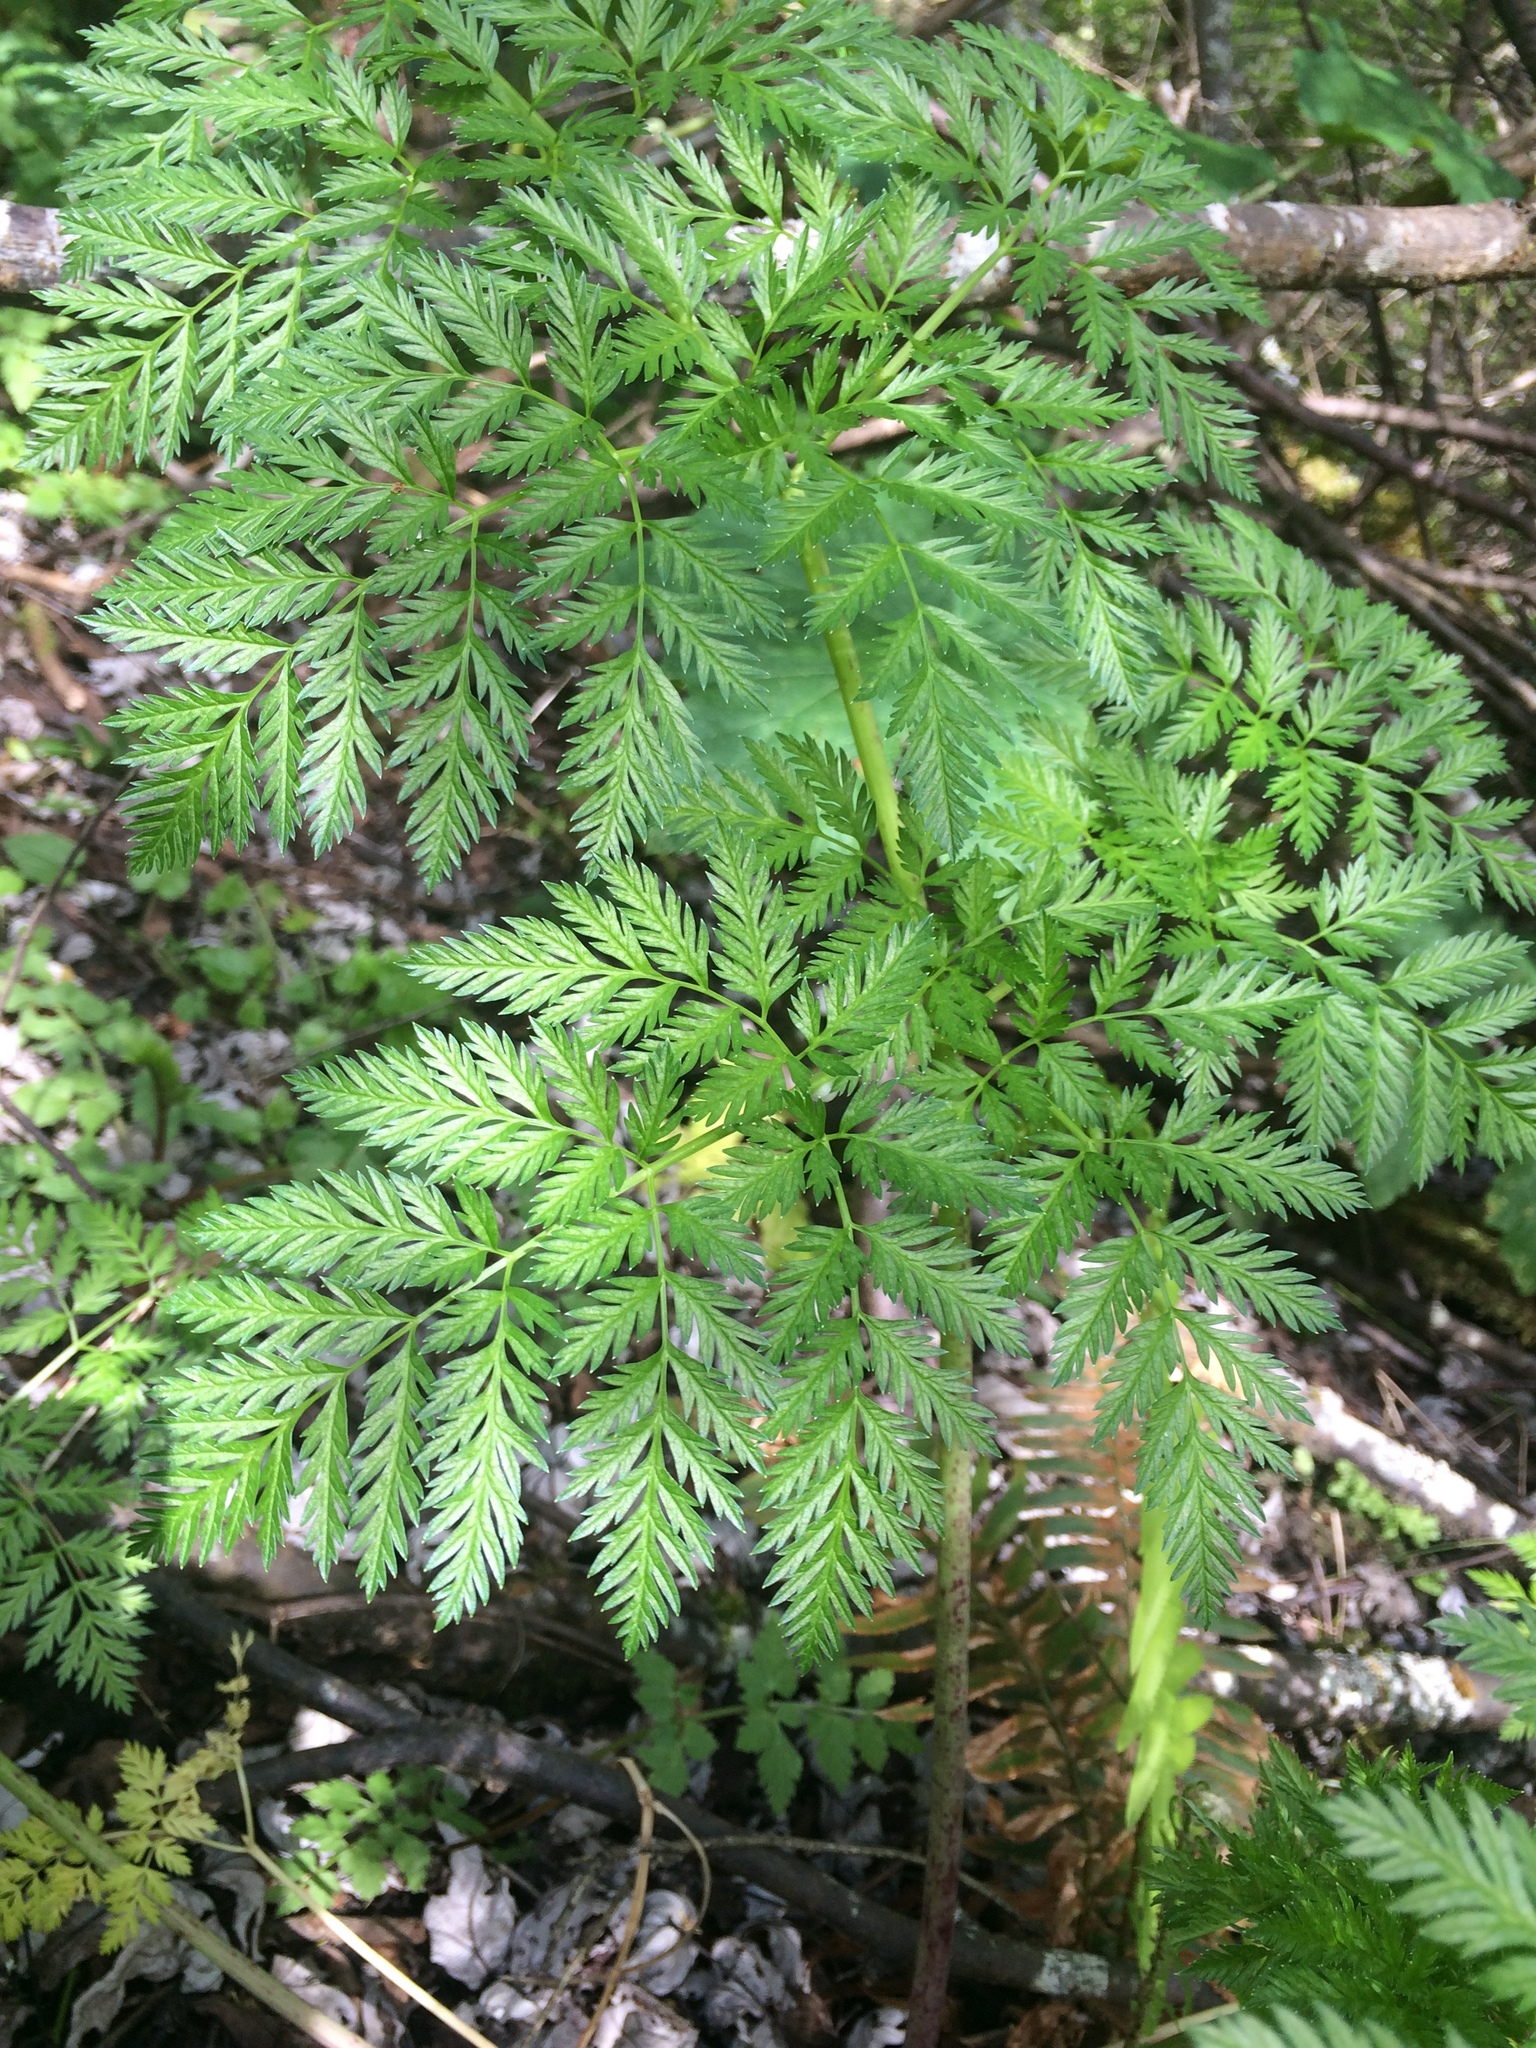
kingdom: Plantae
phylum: Tracheophyta
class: Magnoliopsida
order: Apiales
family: Apiaceae
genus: Conium
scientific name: Conium maculatum
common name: Hemlock
